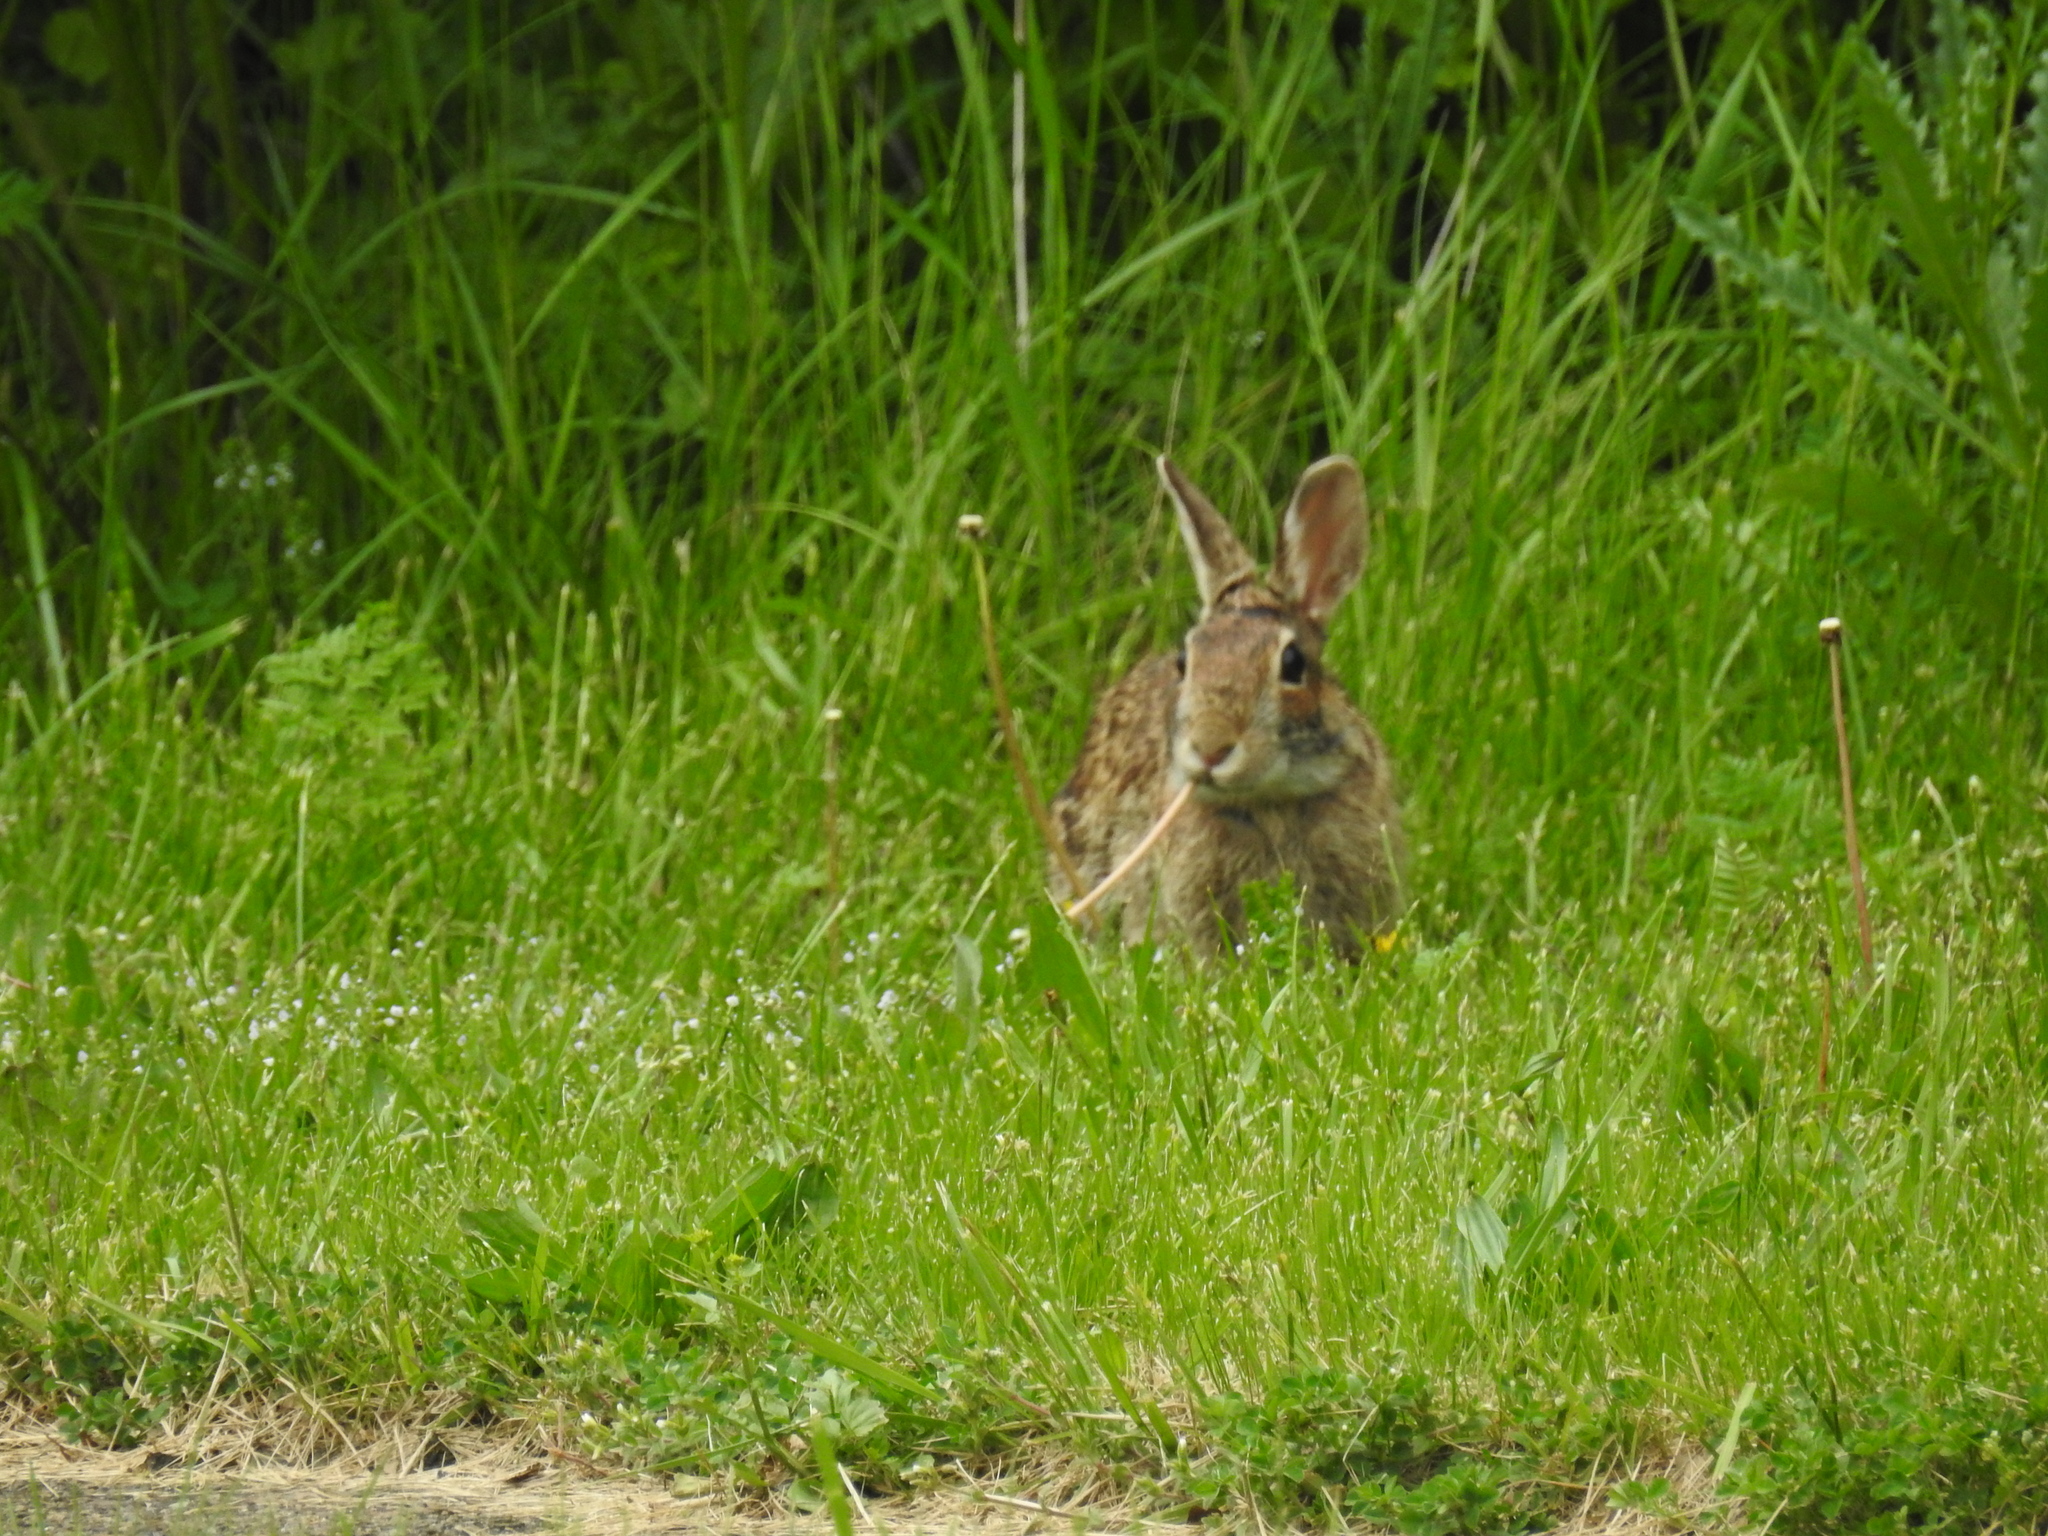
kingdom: Animalia
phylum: Chordata
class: Mammalia
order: Lagomorpha
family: Leporidae
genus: Sylvilagus
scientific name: Sylvilagus floridanus
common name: Eastern cottontail
